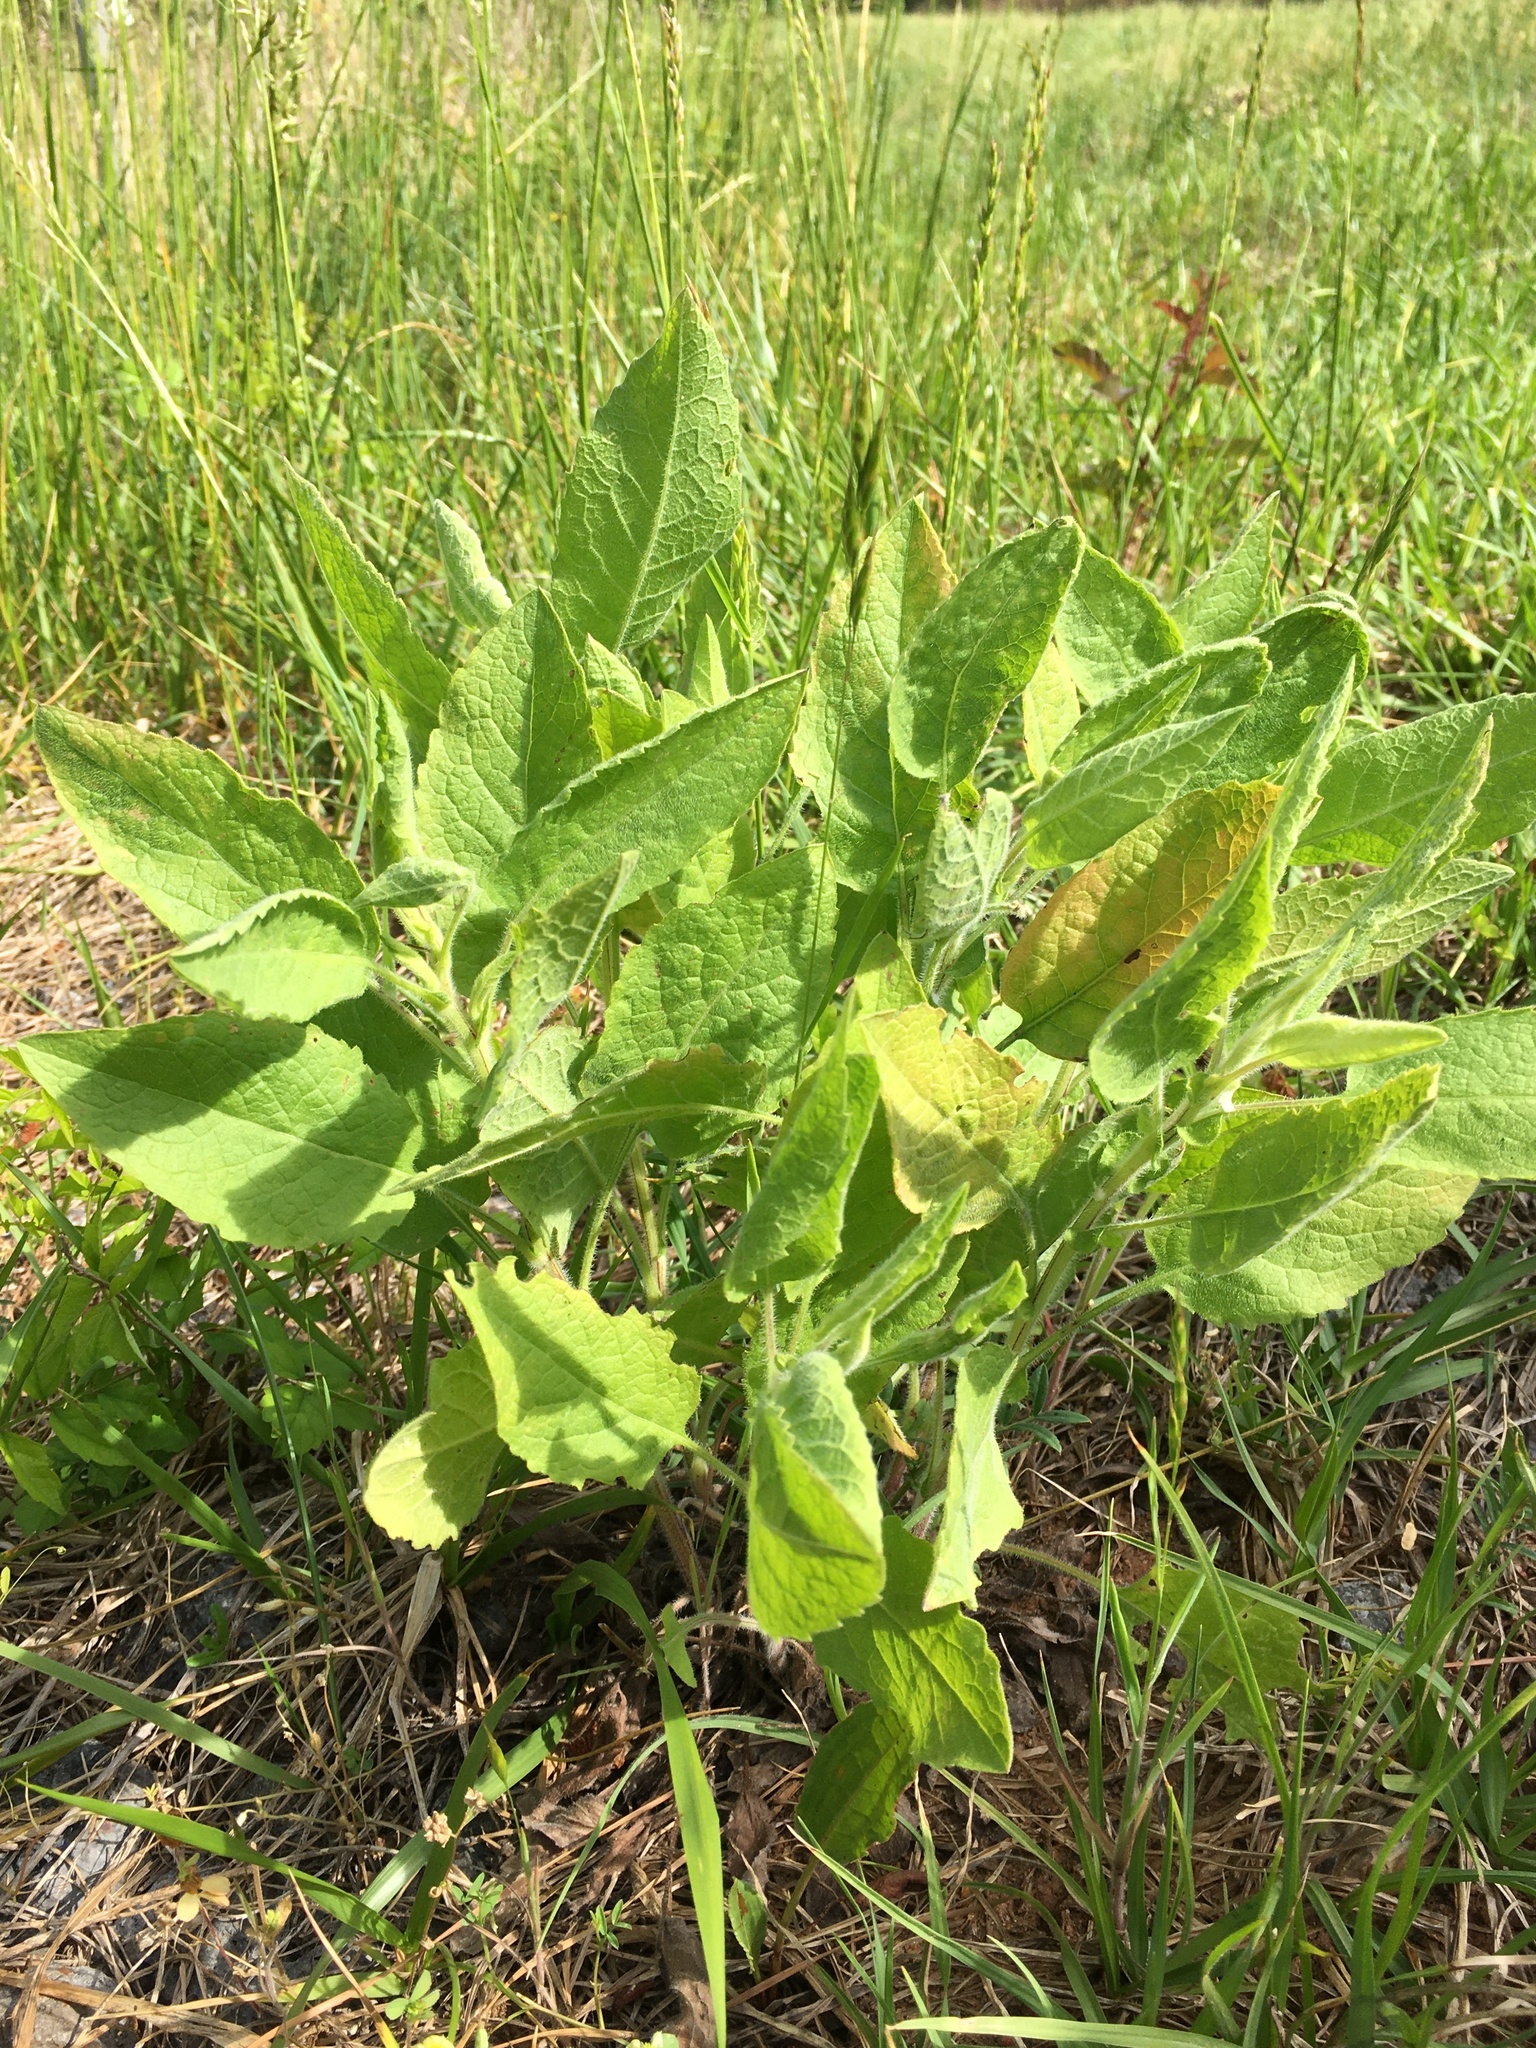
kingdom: Plantae
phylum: Tracheophyta
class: Magnoliopsida
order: Asterales
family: Asteraceae
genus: Heterotheca
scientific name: Heterotheca subaxillaris
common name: Camphorweed
